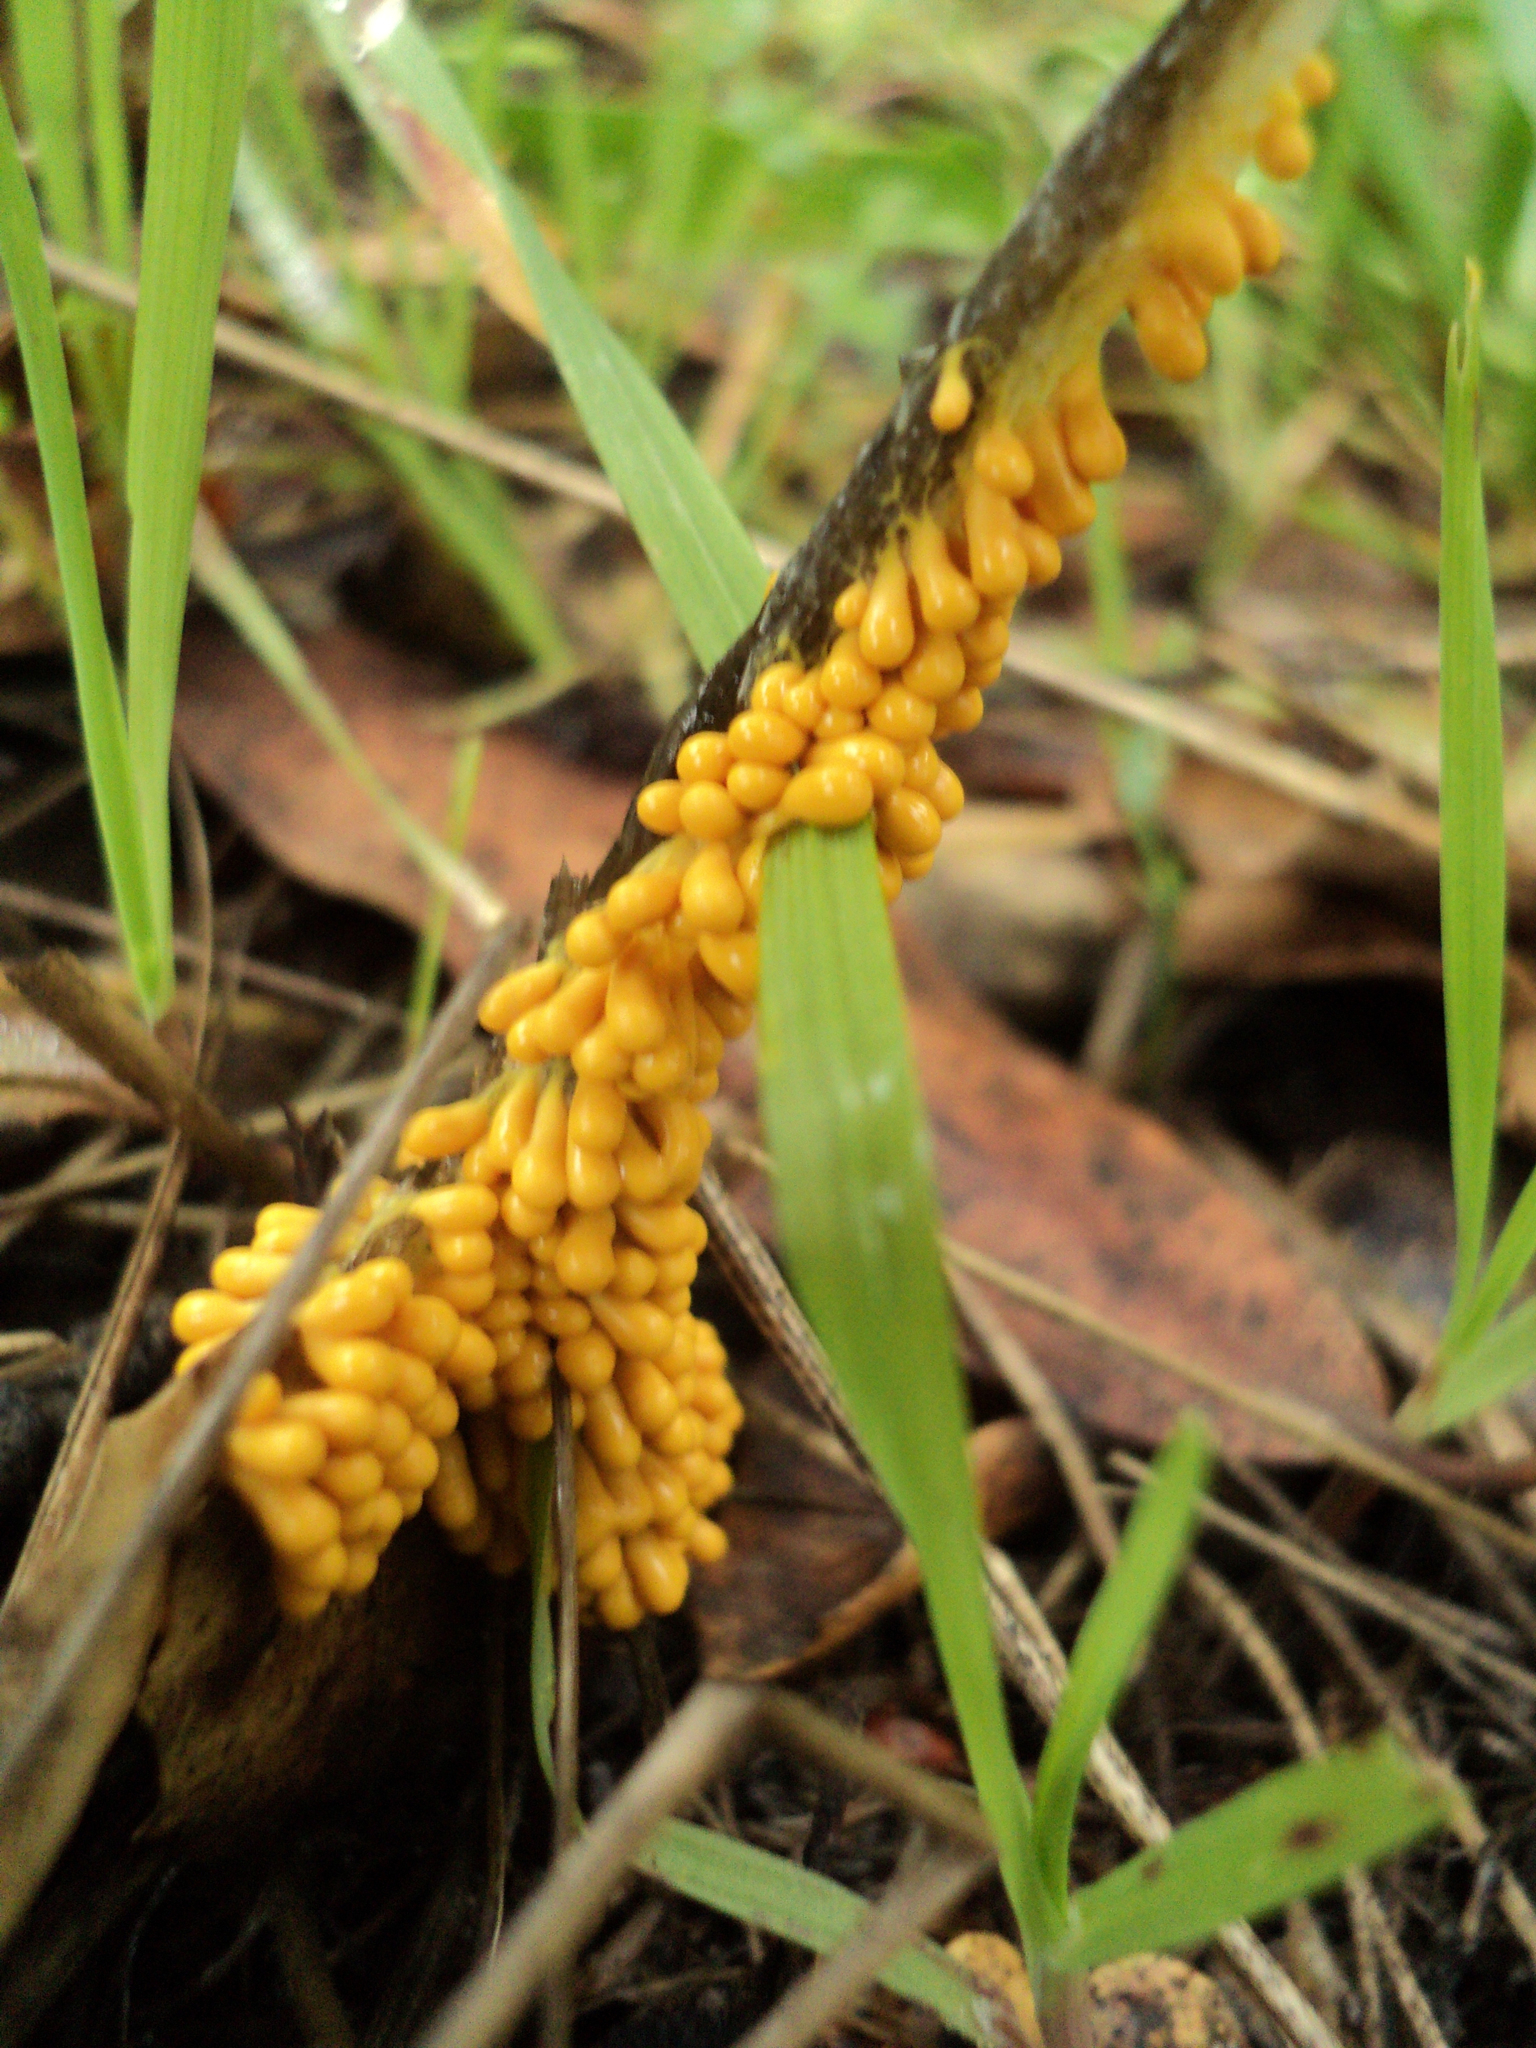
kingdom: Protozoa
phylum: Mycetozoa
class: Myxomycetes
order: Physarales
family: Physaraceae
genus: Leocarpus
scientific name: Leocarpus fragilis
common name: Insect-egg slime
